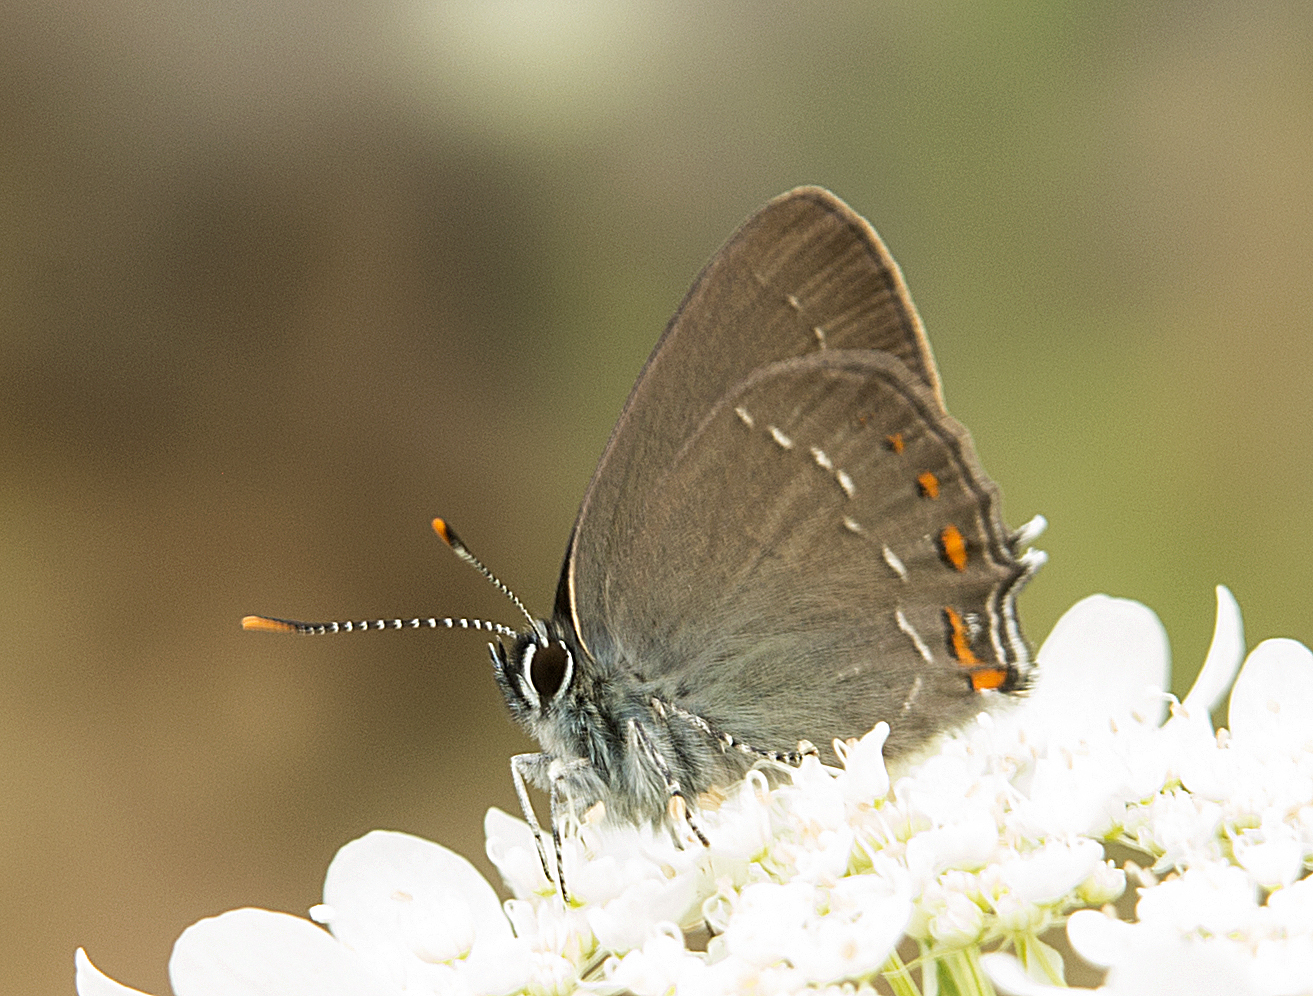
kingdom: Animalia
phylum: Arthropoda
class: Insecta
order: Lepidoptera
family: Lycaenidae
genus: Nordmannia
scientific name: Nordmannia ilicis
